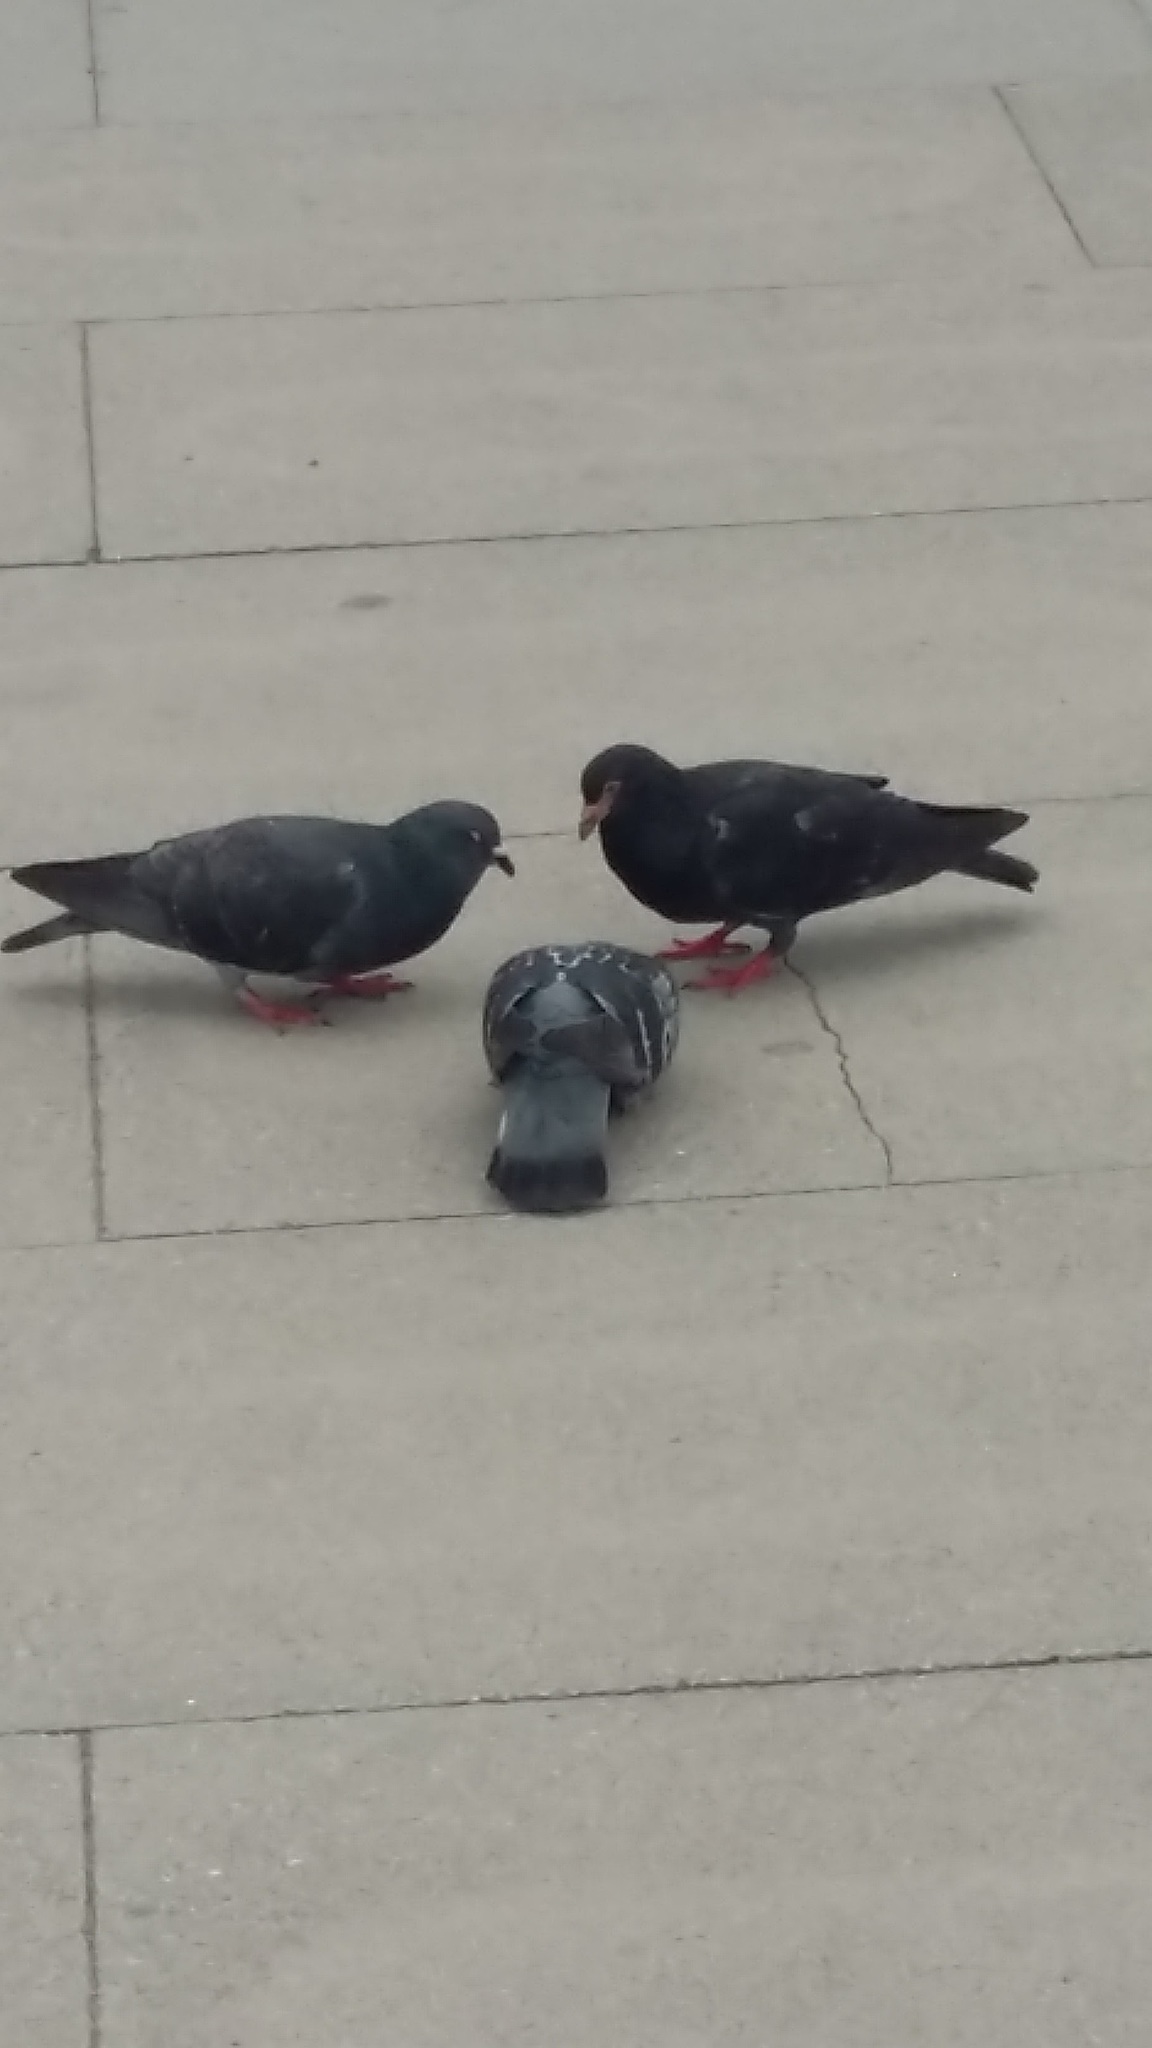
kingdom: Animalia
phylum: Chordata
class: Aves
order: Columbiformes
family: Columbidae
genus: Columba
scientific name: Columba livia
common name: Rock pigeon
